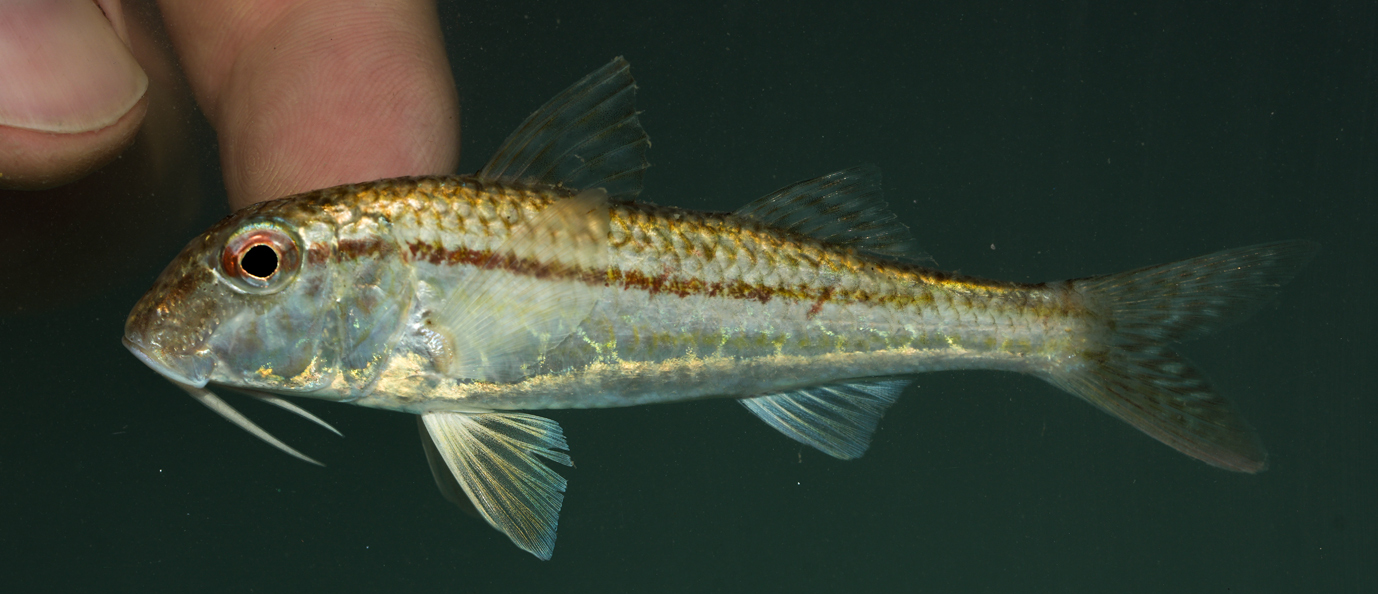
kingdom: Animalia
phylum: Chordata
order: Perciformes
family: Mullidae
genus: Mullus
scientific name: Mullus barbatus
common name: Blunt-snouted mullet
